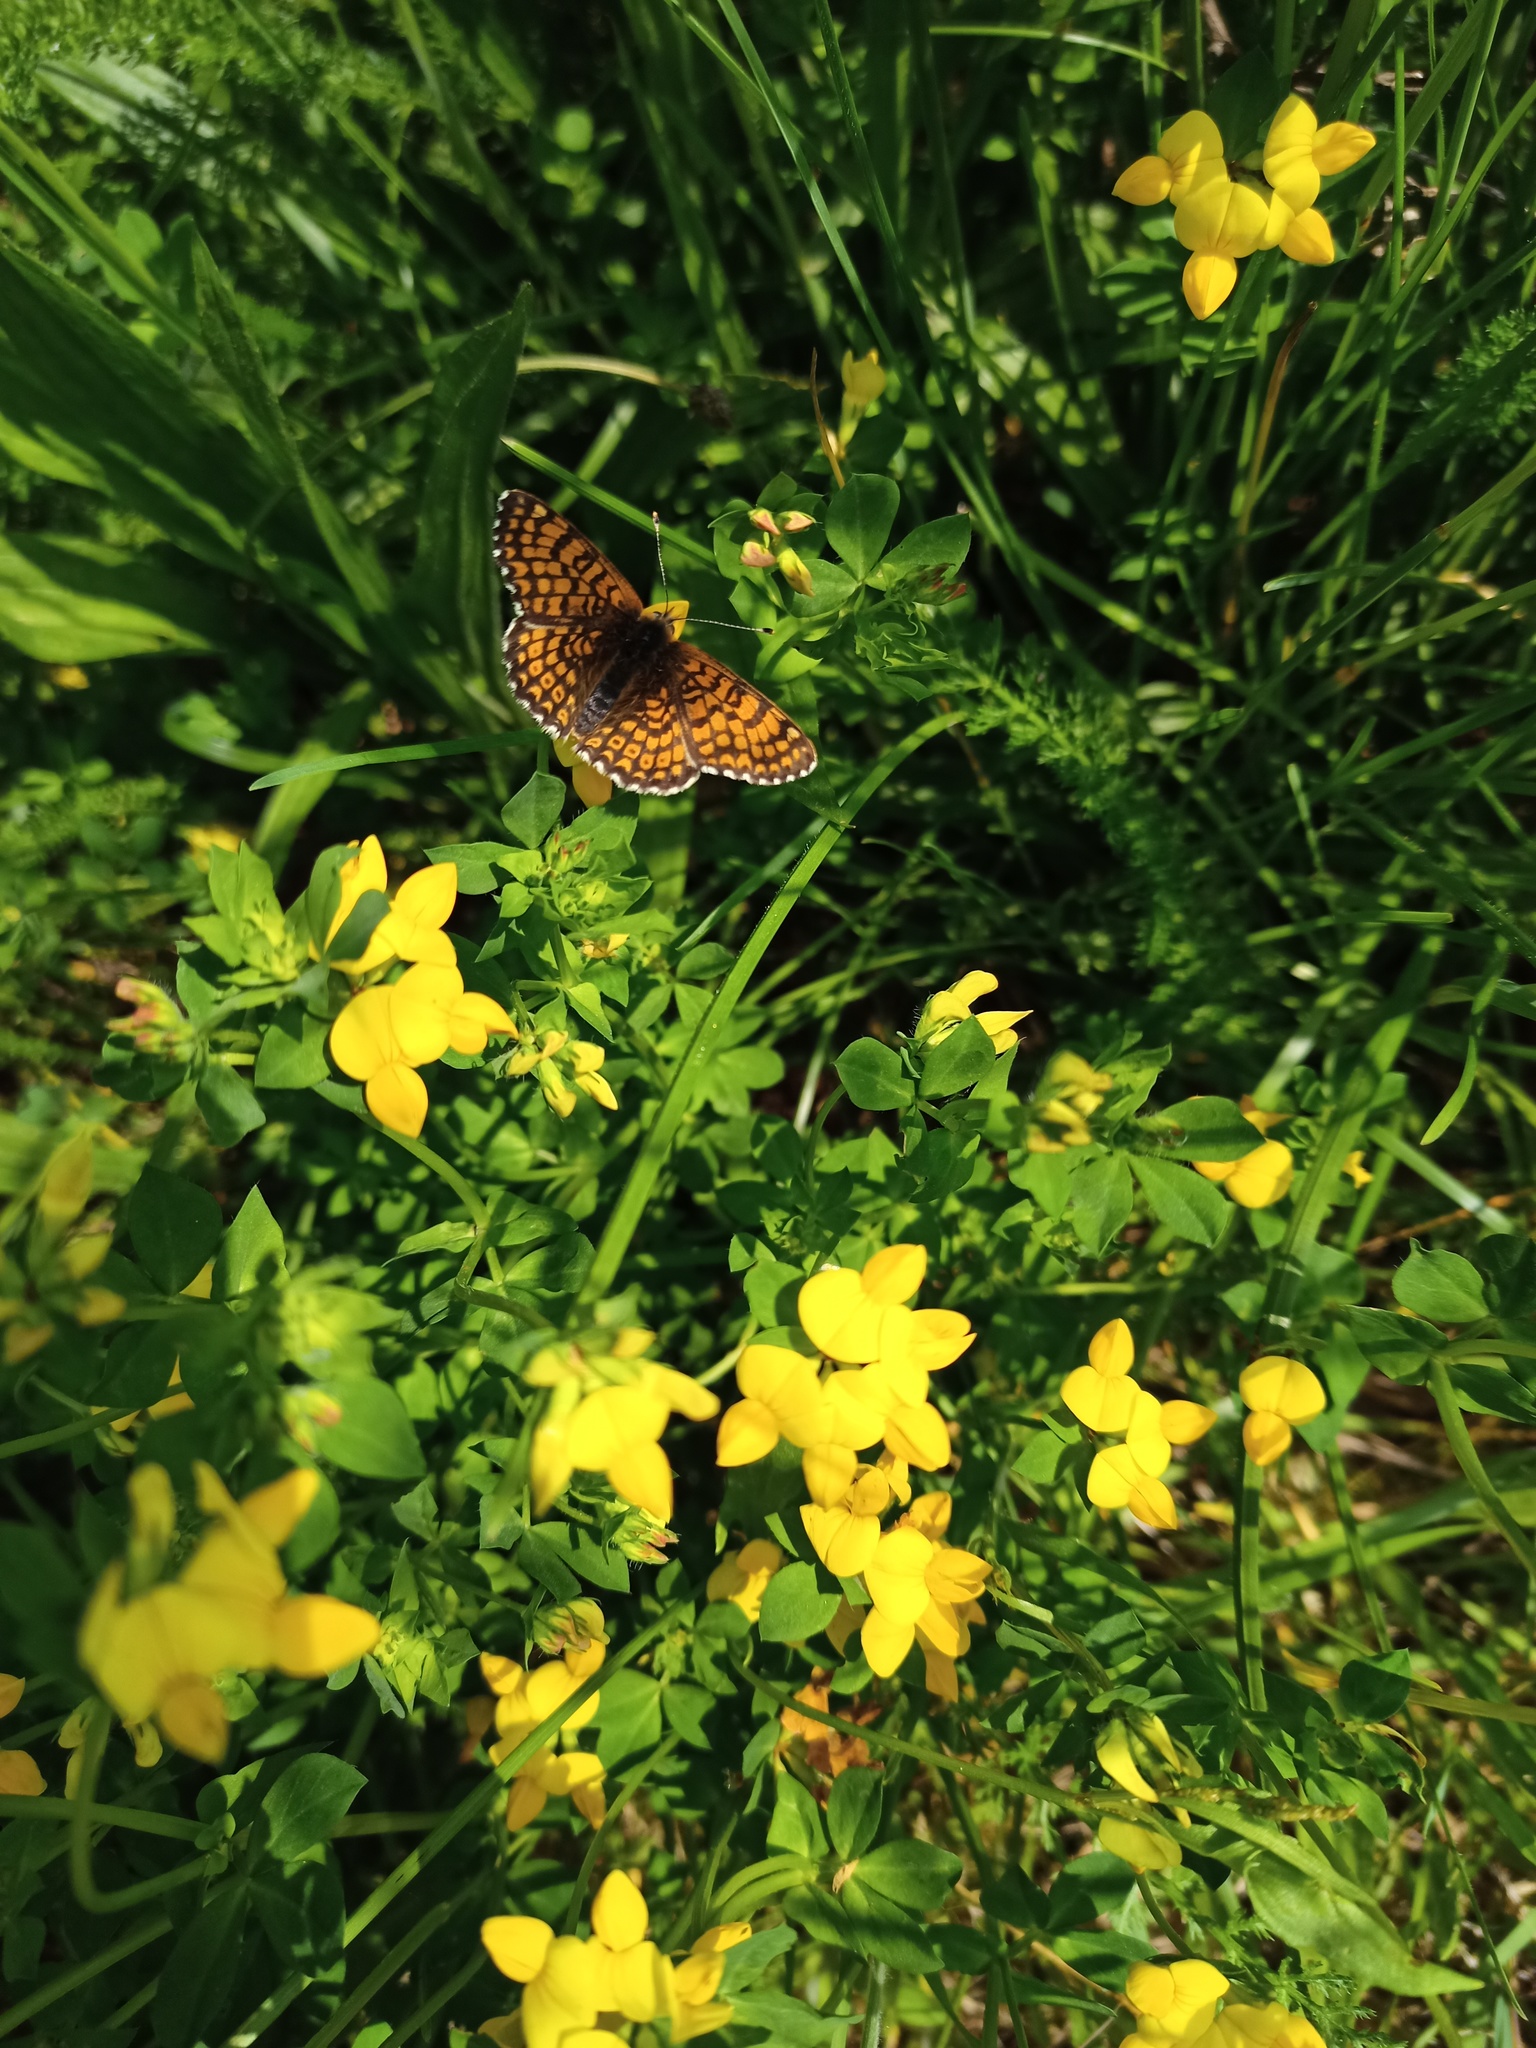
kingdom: Plantae
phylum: Tracheophyta
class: Magnoliopsida
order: Fabales
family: Fabaceae
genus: Lotus
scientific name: Lotus corniculatus
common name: Common bird's-foot-trefoil
